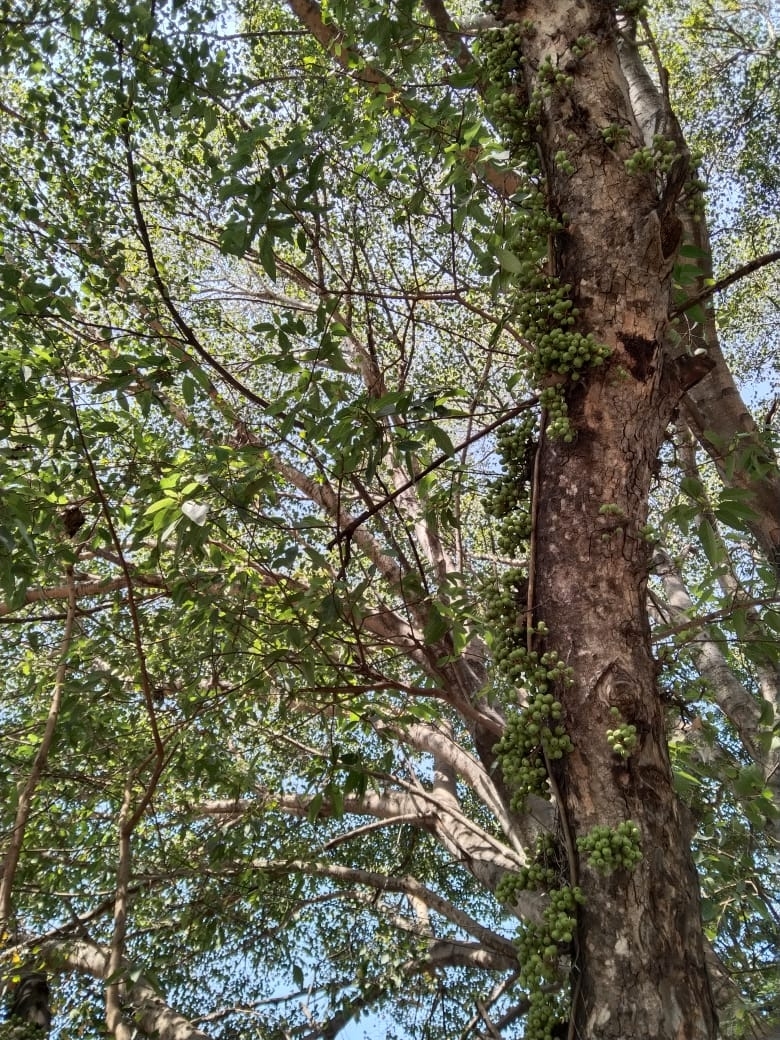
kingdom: Plantae
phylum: Tracheophyta
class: Magnoliopsida
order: Rosales
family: Moraceae
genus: Ficus
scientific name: Ficus racemosa
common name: Cluster fig
